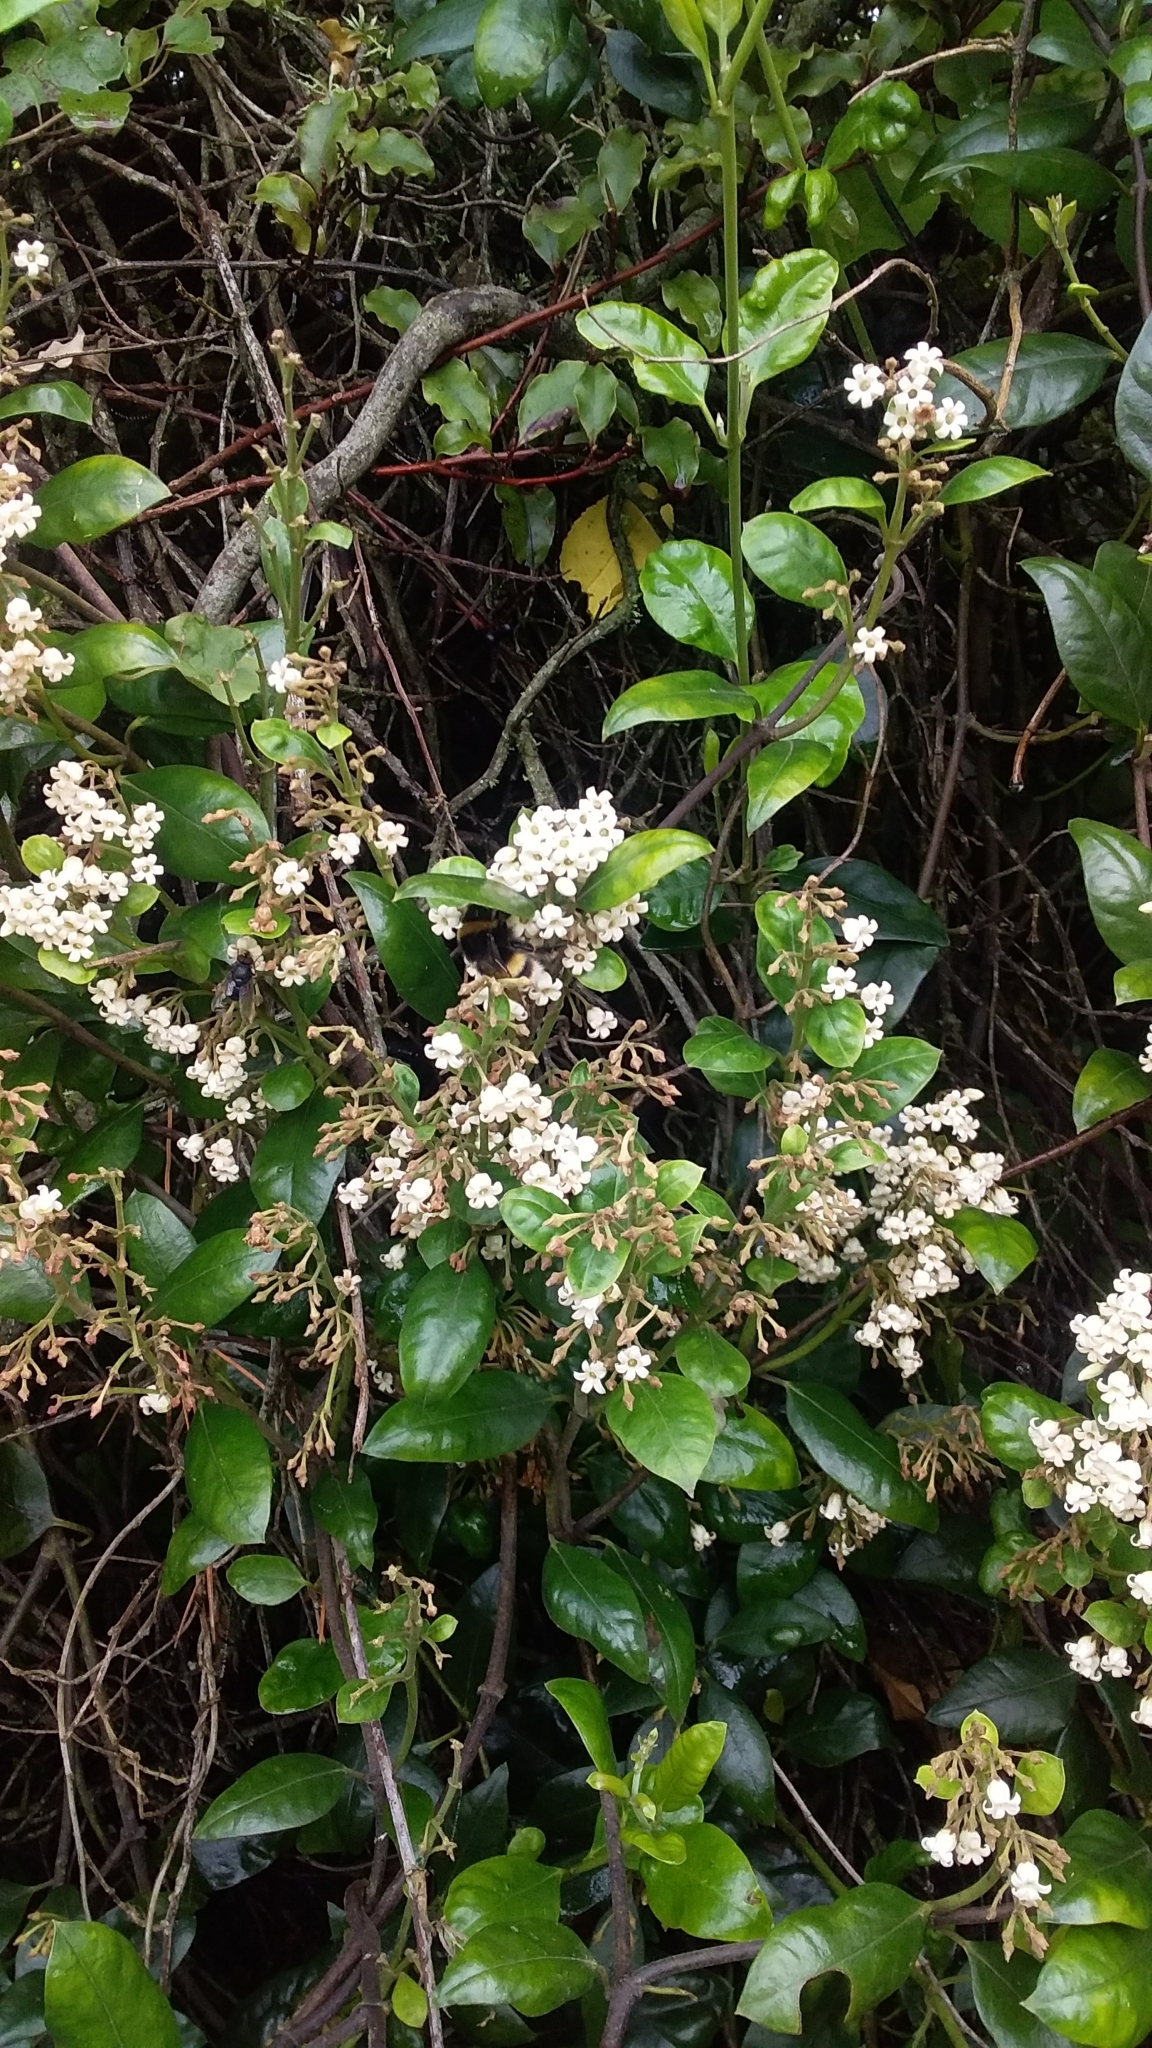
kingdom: Plantae
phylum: Tracheophyta
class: Magnoliopsida
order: Gentianales
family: Apocynaceae
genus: Parsonsia
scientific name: Parsonsia heterophylla
